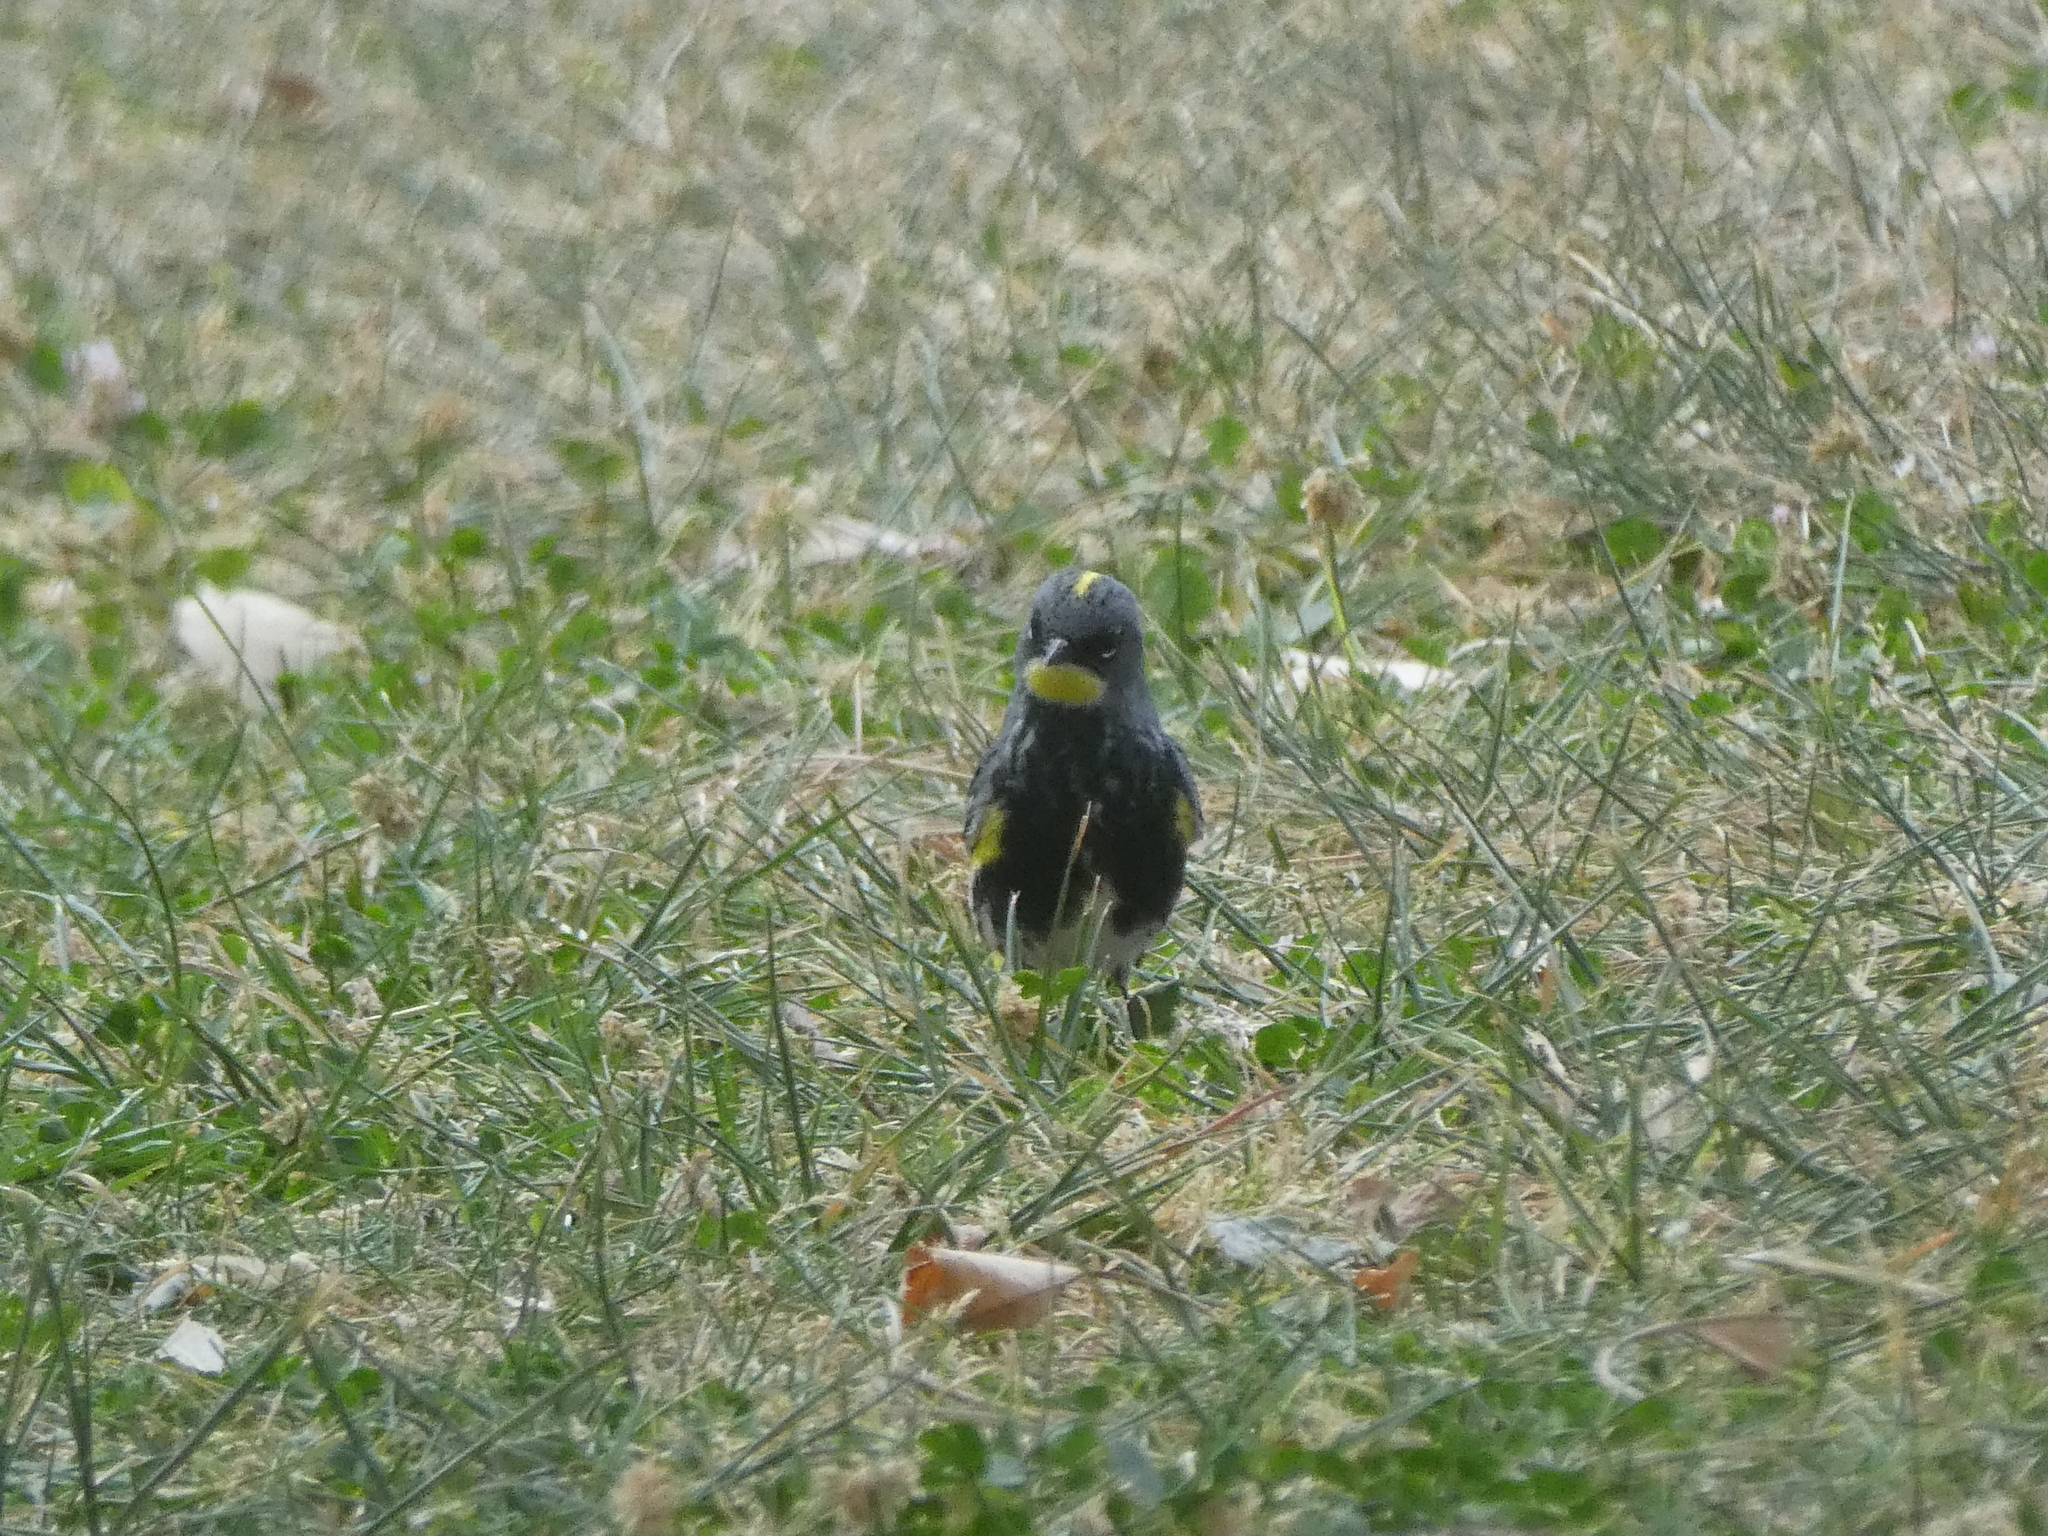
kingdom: Animalia
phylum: Chordata
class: Aves
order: Passeriformes
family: Parulidae
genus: Setophaga
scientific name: Setophaga coronata
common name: Myrtle warbler
